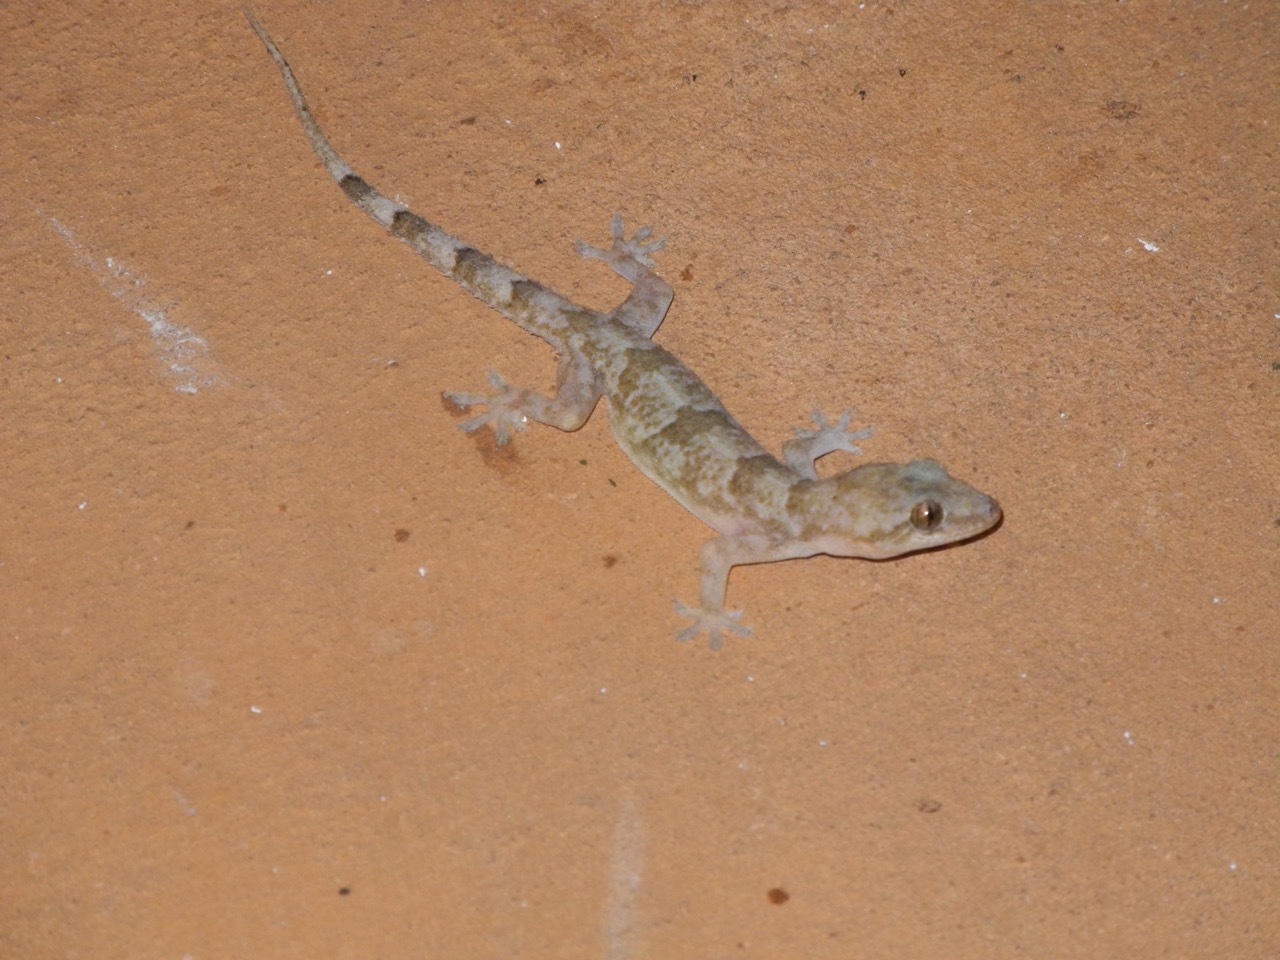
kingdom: Animalia
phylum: Chordata
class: Squamata
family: Gekkonidae
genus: Hemidactylus
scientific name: Hemidactylus mabouia
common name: House gecko
